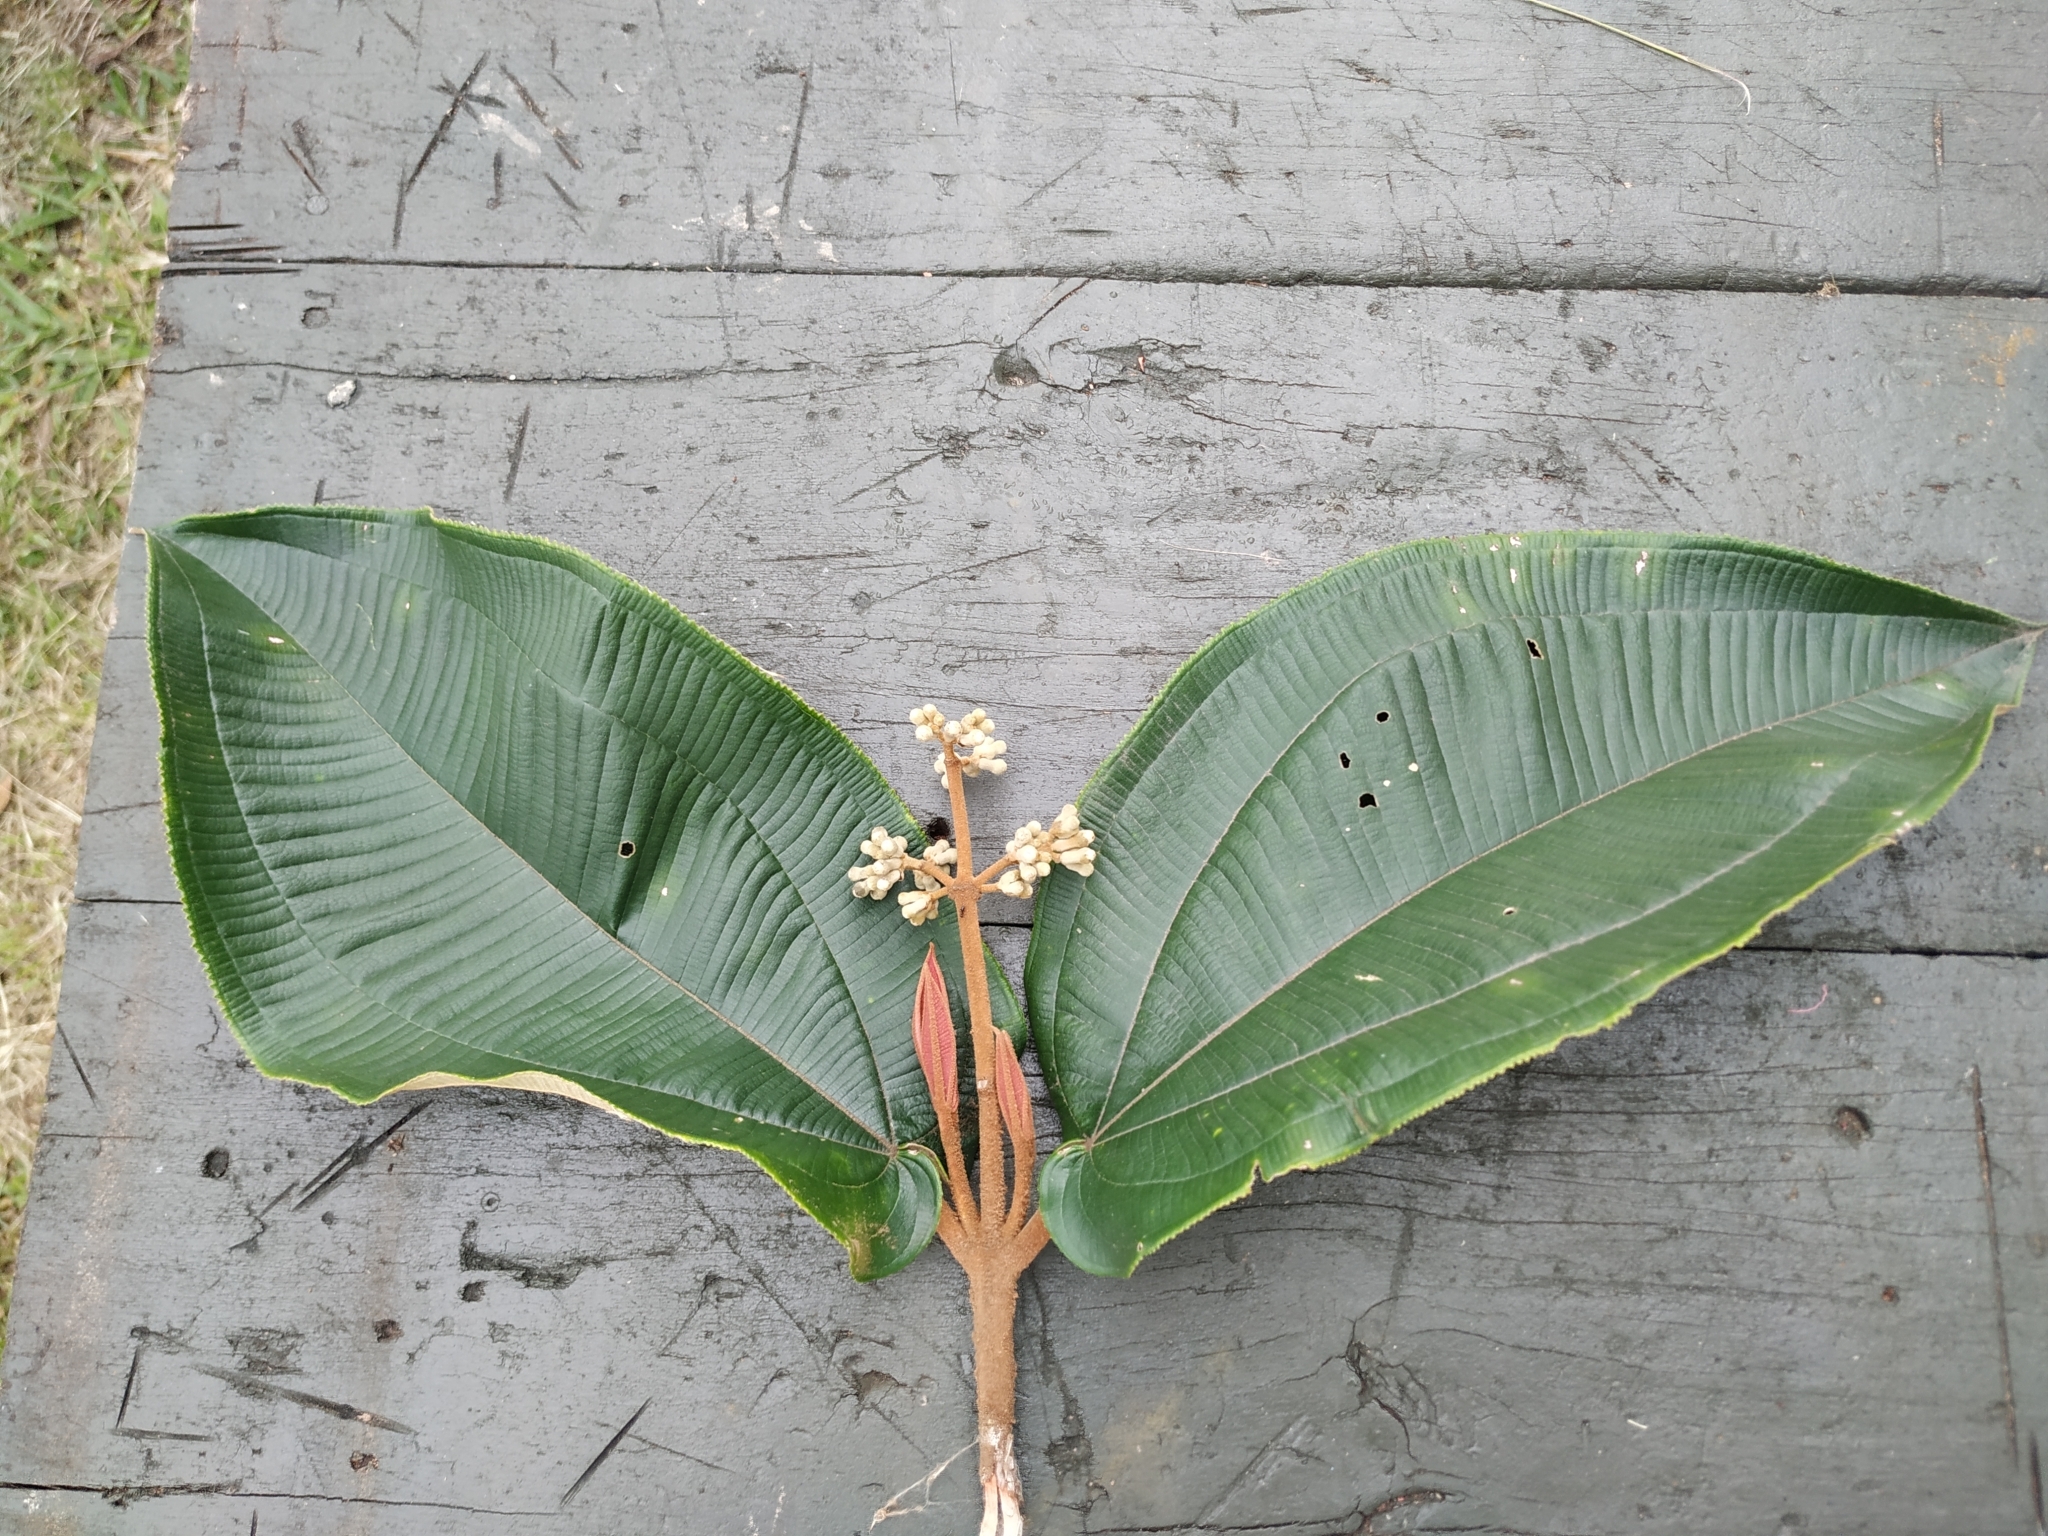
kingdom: Plantae
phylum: Tracheophyta
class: Magnoliopsida
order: Myrtales
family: Melastomataceae
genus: Miconia
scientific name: Miconia bubalina
